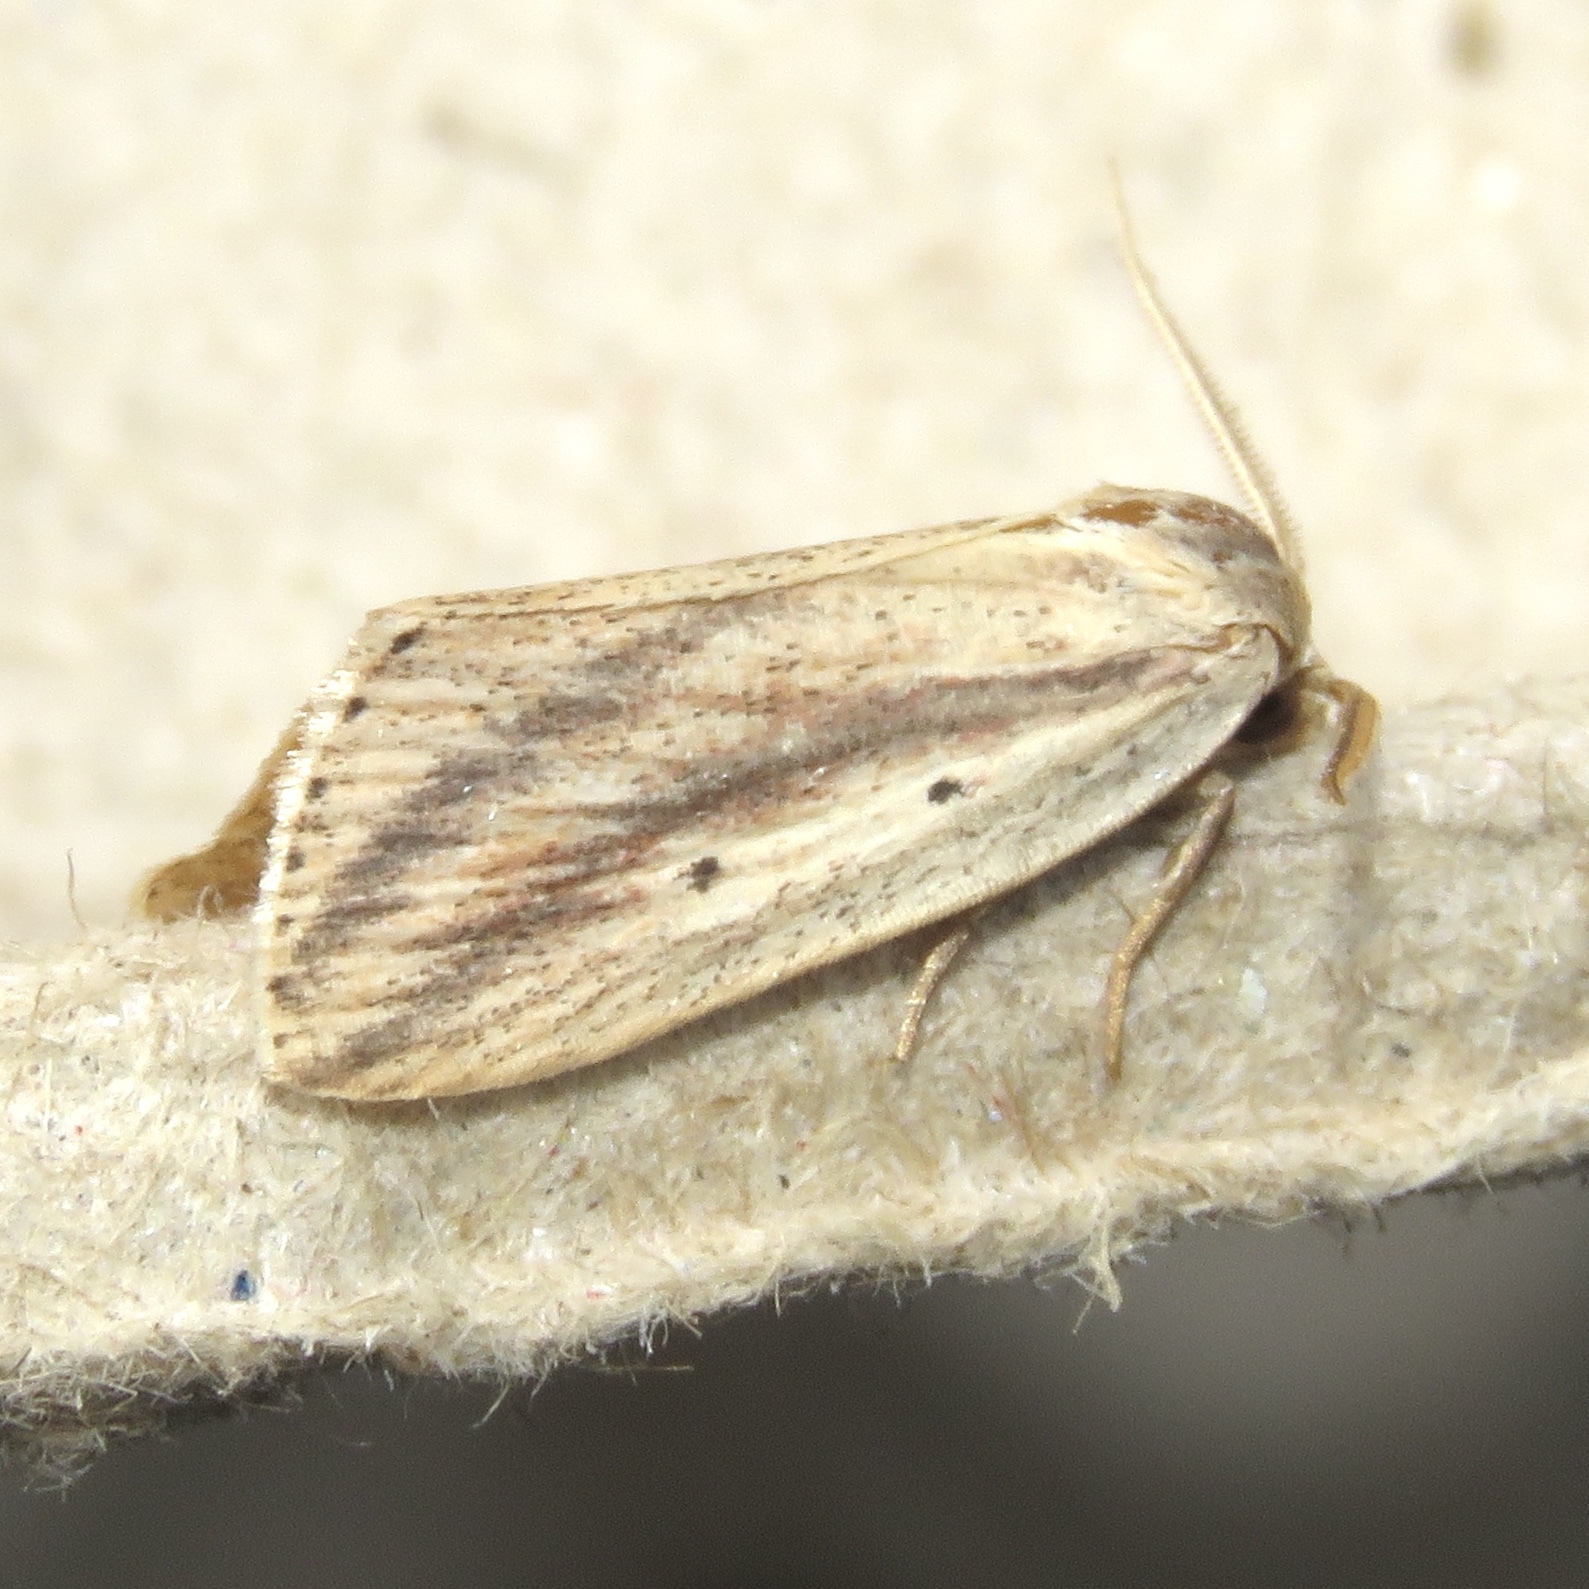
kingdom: Animalia
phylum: Arthropoda
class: Insecta
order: Lepidoptera
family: Noctuidae
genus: Amolita
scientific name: Amolita fessa
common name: Feeble grass moth
